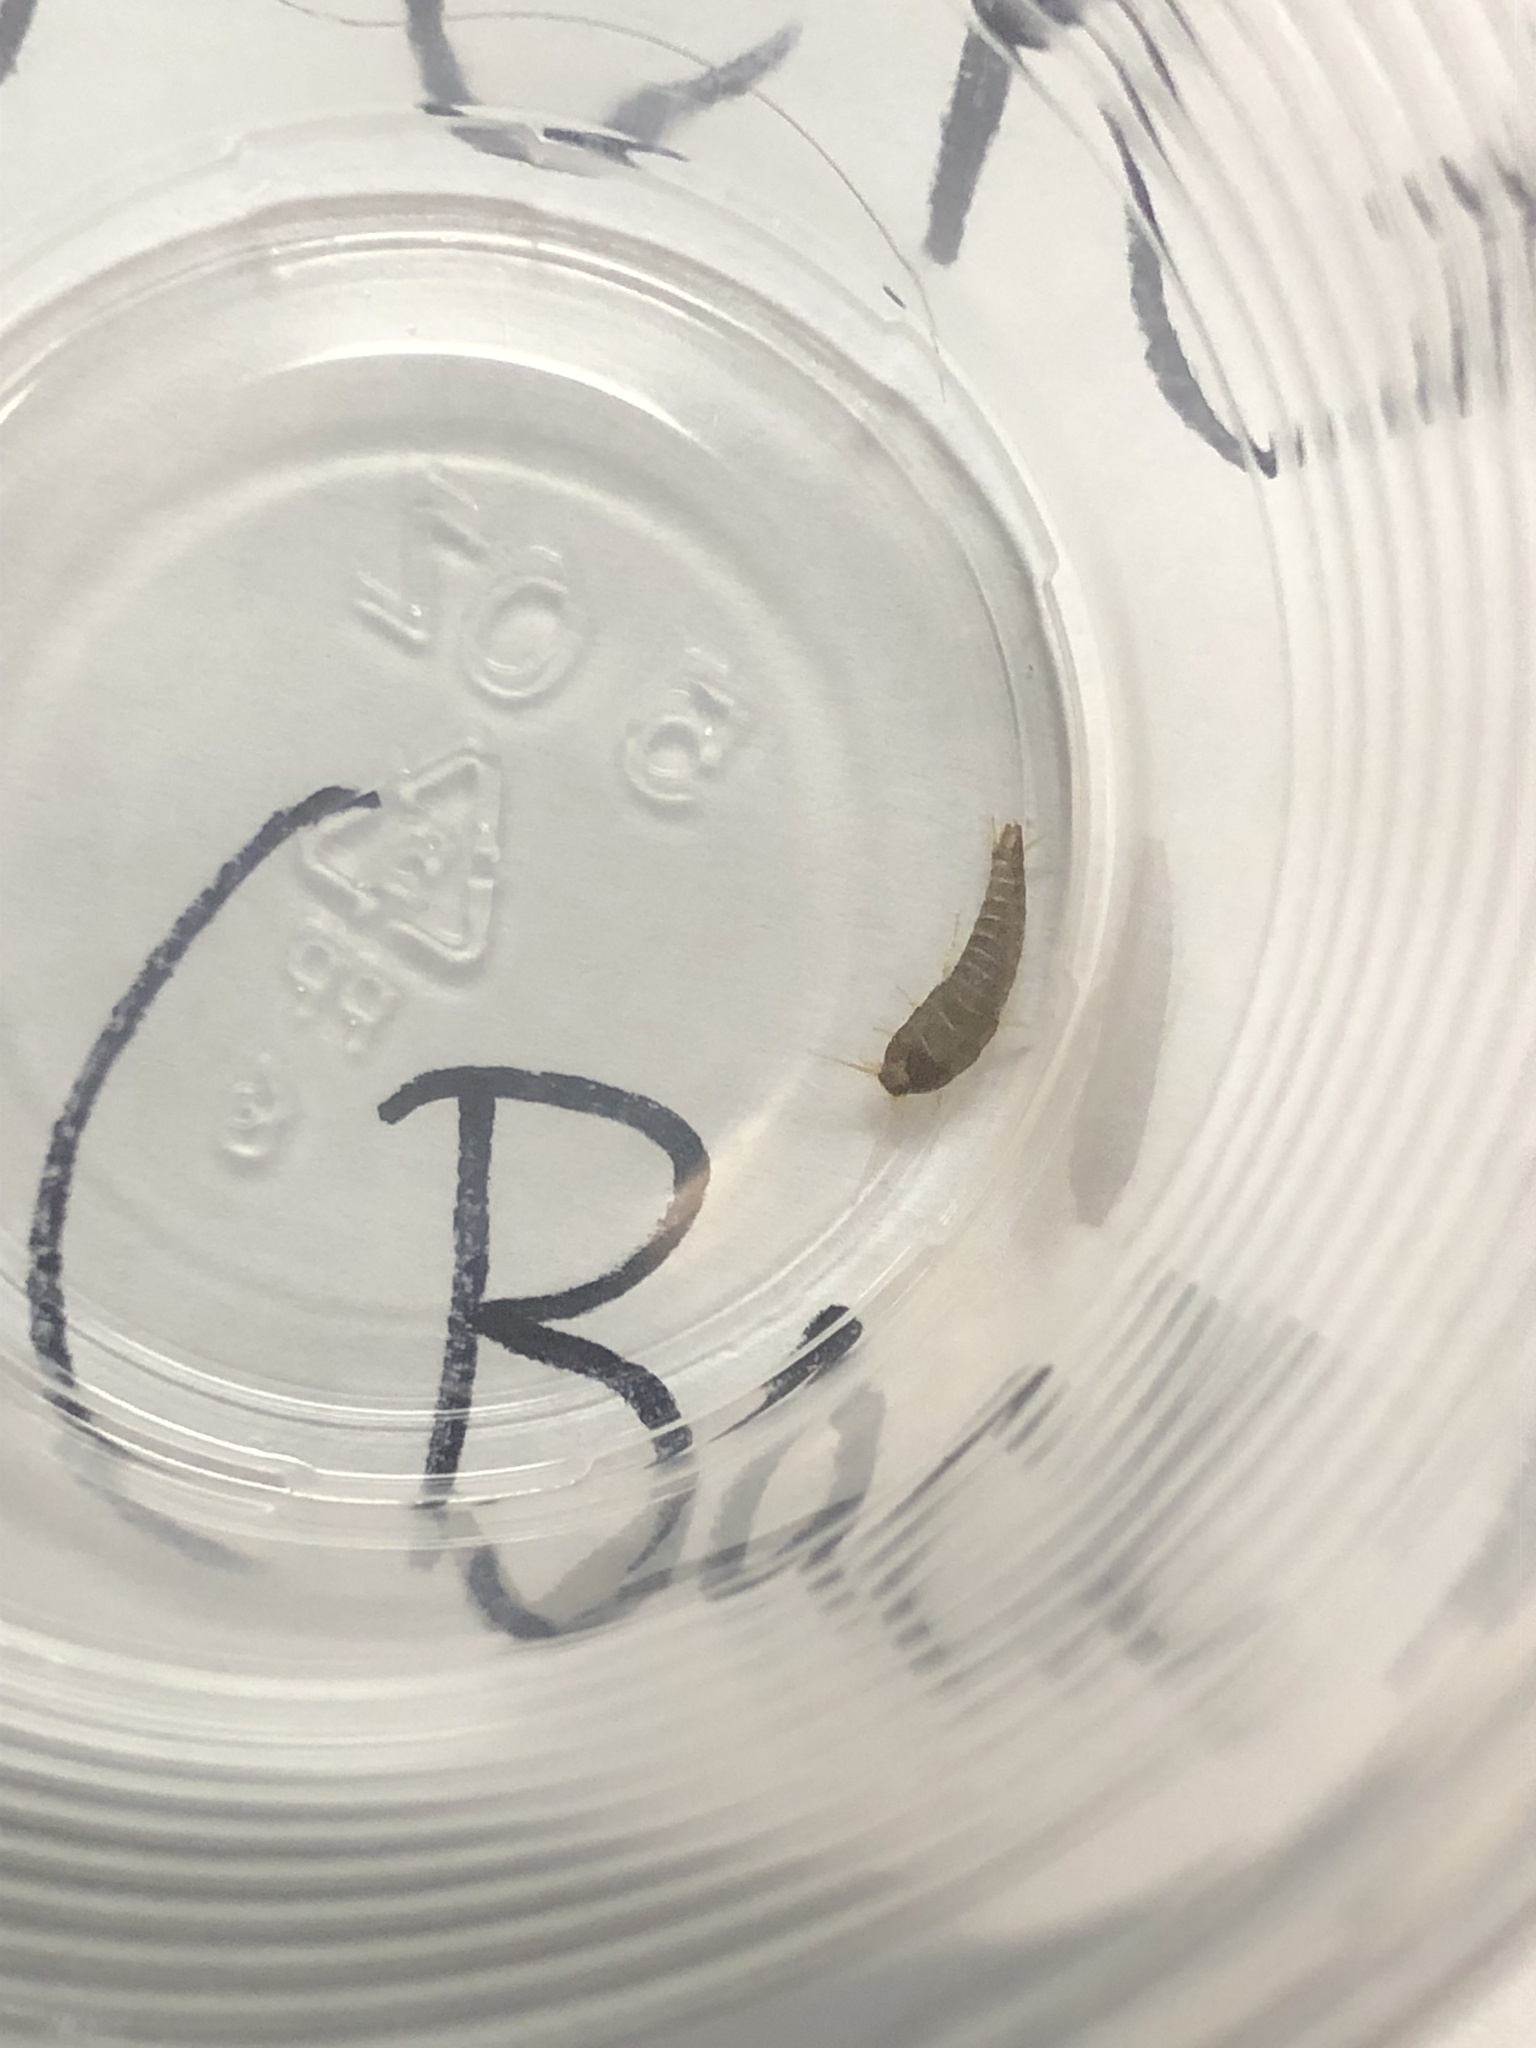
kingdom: Animalia
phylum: Arthropoda
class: Insecta
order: Zygentoma
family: Lepismatidae
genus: Lepisma
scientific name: Lepisma saccharinum
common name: Silverfish
